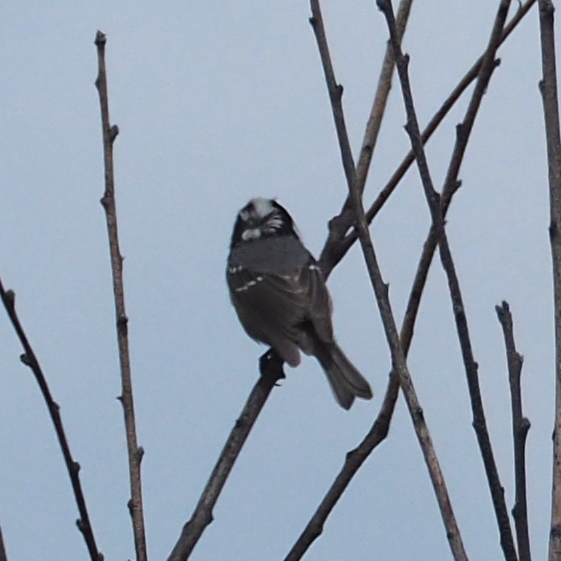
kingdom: Animalia
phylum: Chordata
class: Aves
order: Passeriformes
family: Paridae
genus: Periparus
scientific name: Periparus ater
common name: Coal tit
